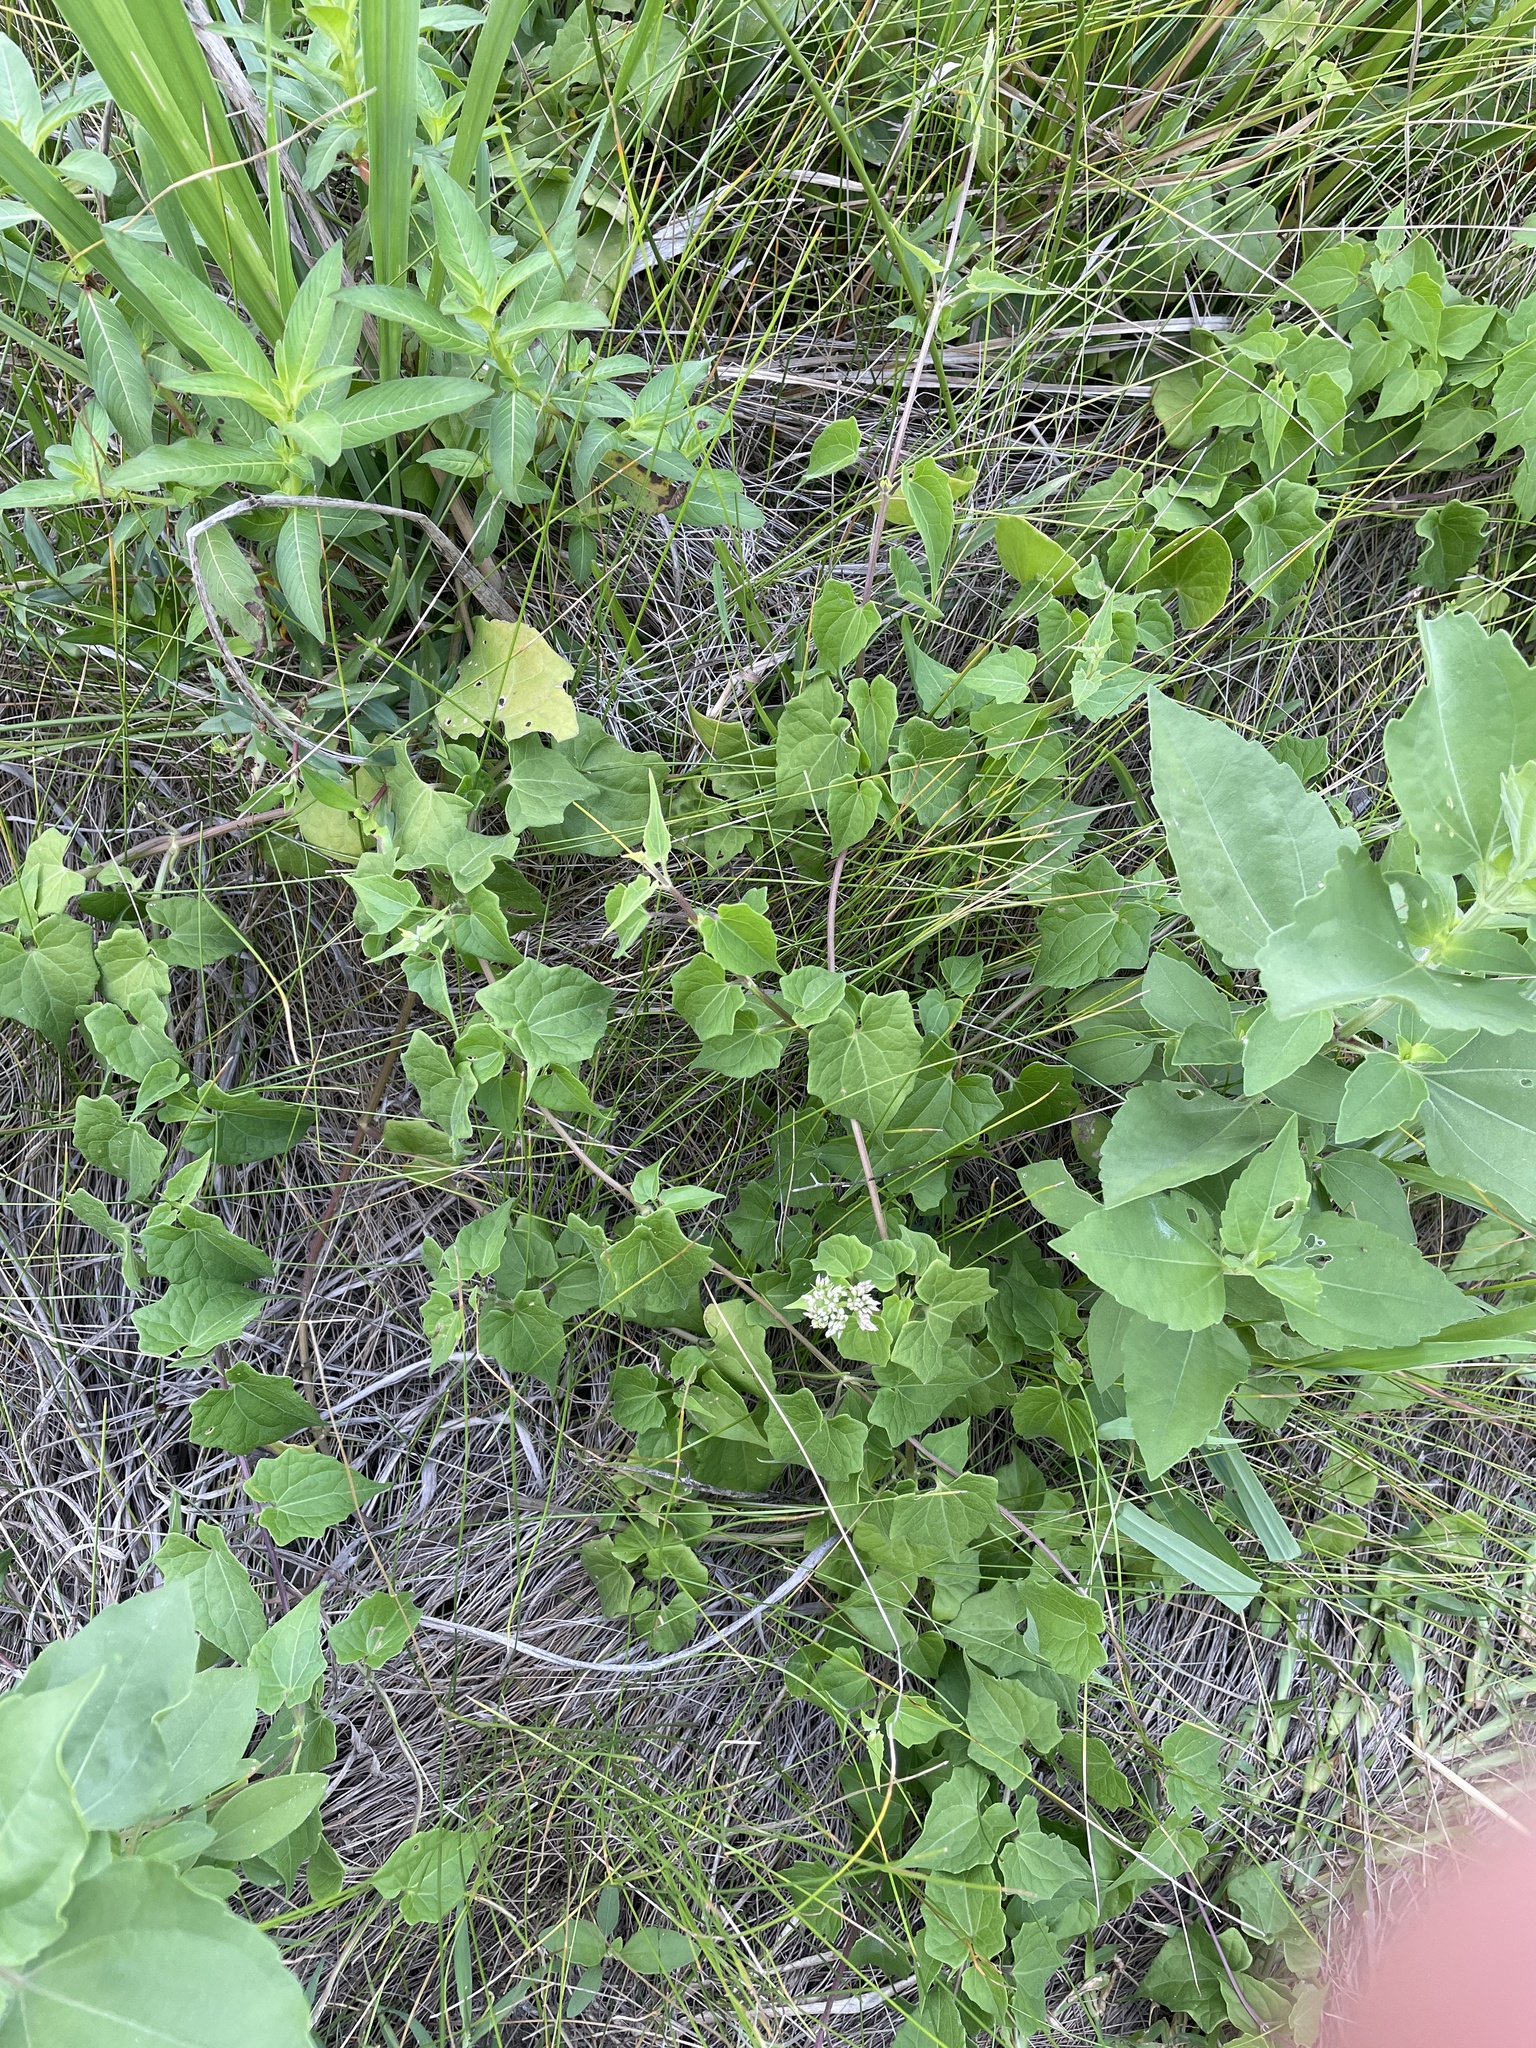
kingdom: Plantae
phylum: Tracheophyta
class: Magnoliopsida
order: Asterales
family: Asteraceae
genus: Mikania
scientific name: Mikania scandens
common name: Climbing hempvine
